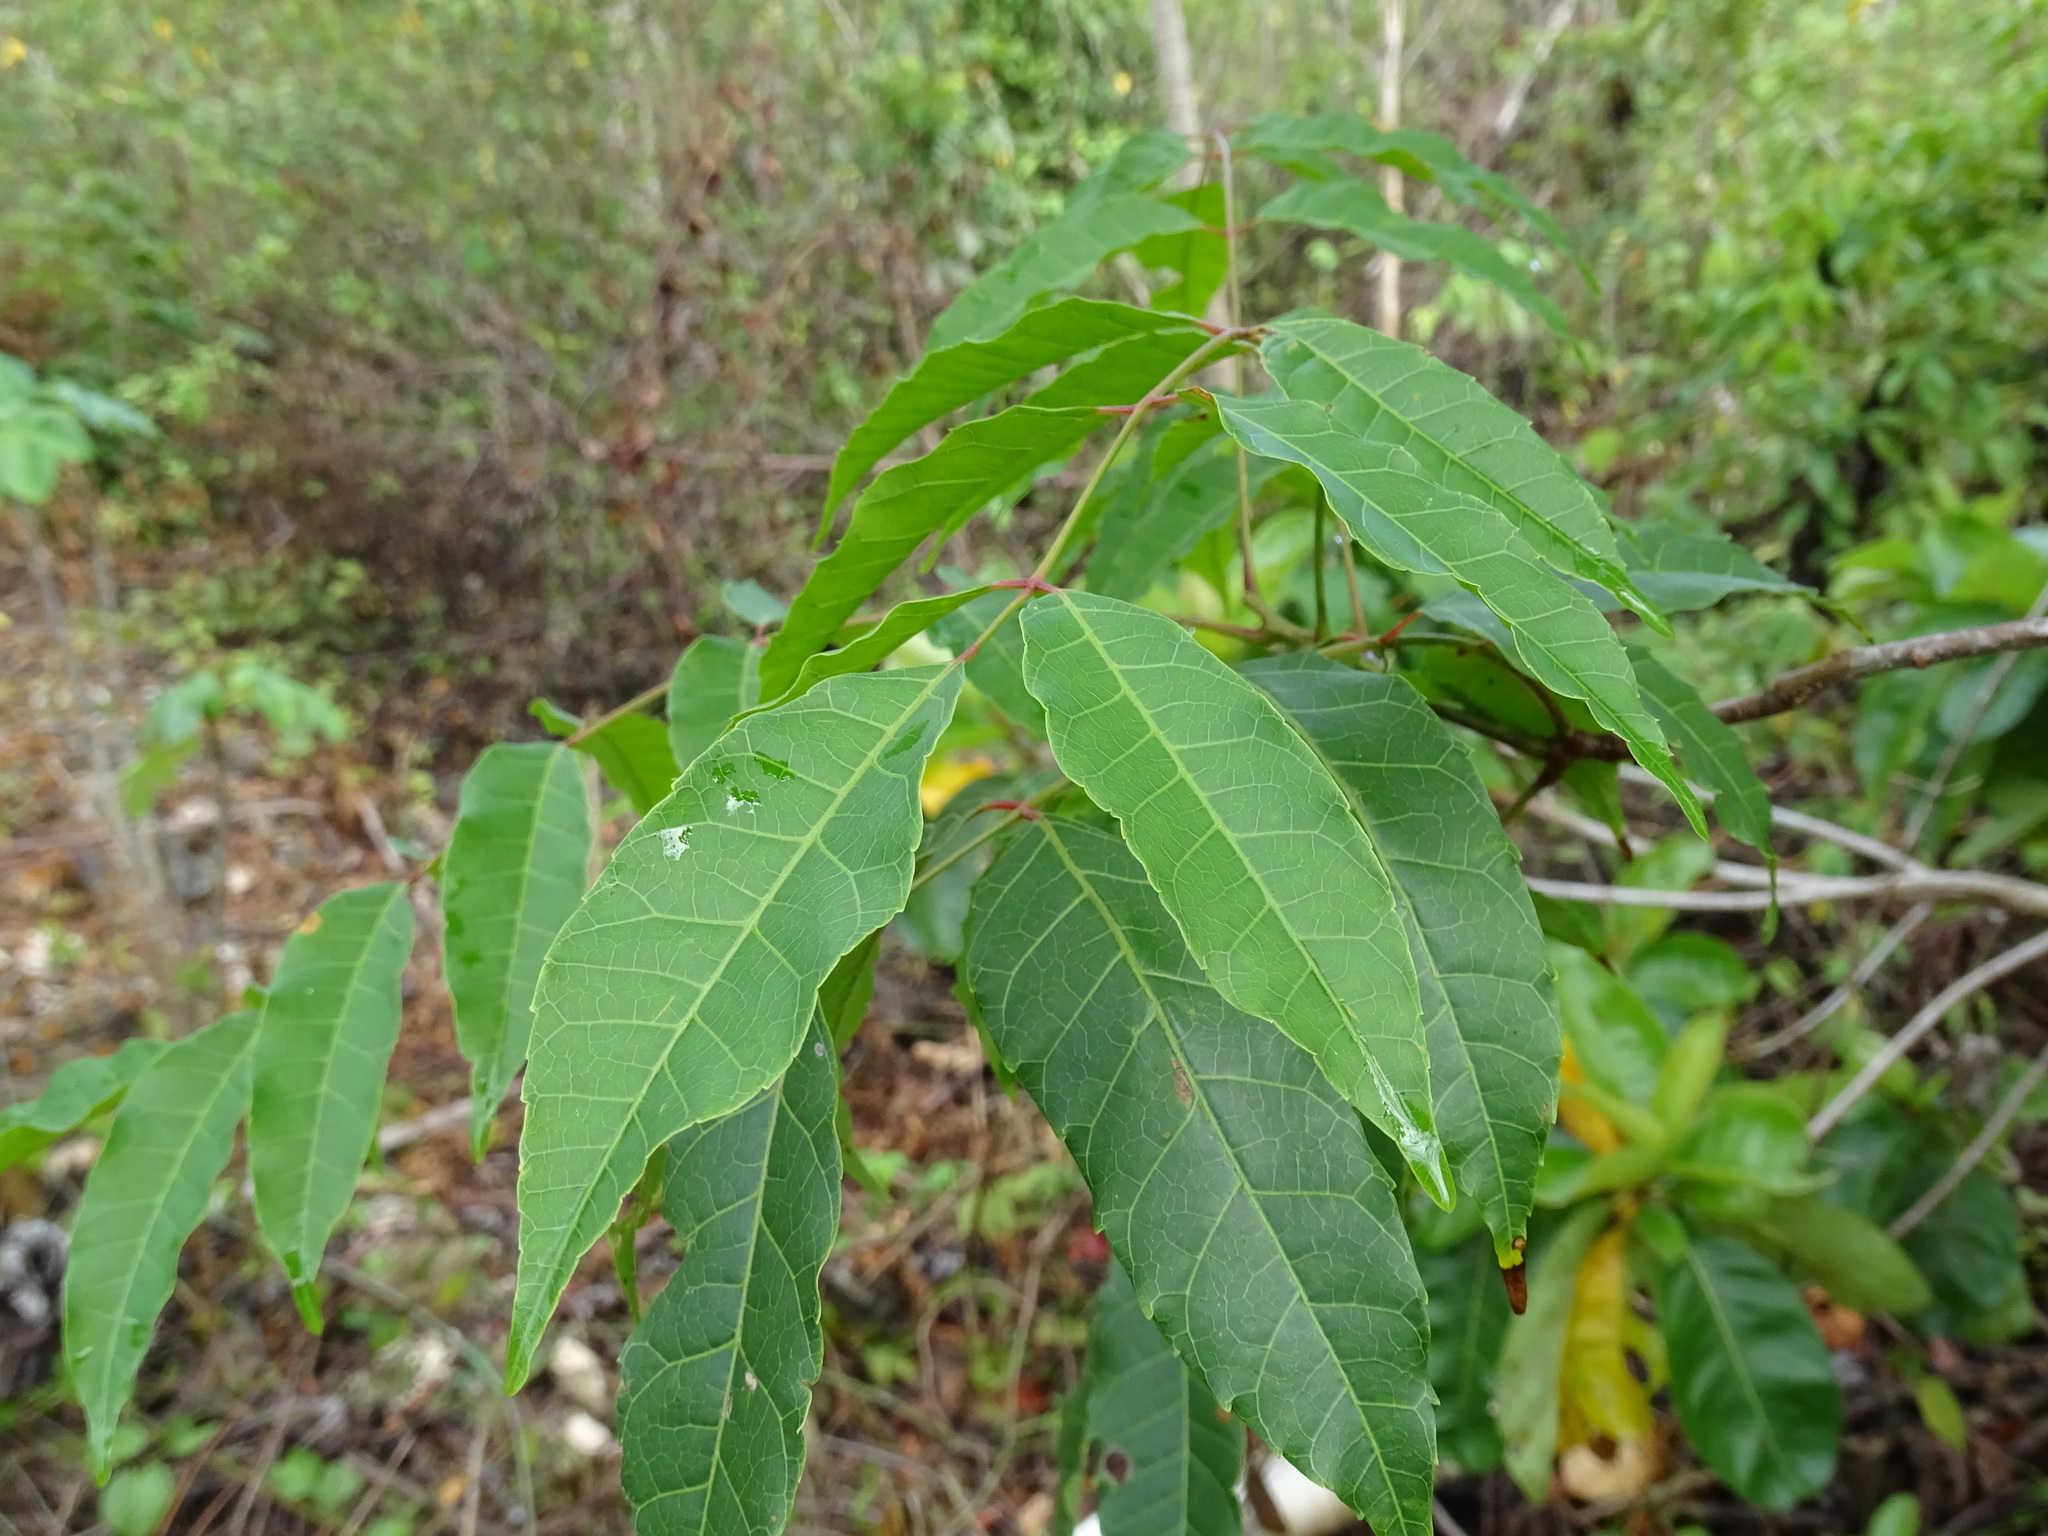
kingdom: Plantae
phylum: Tracheophyta
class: Magnoliopsida
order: Sapindales
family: Anacardiaceae
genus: Astronium
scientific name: Astronium graveolens
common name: Glassywood
